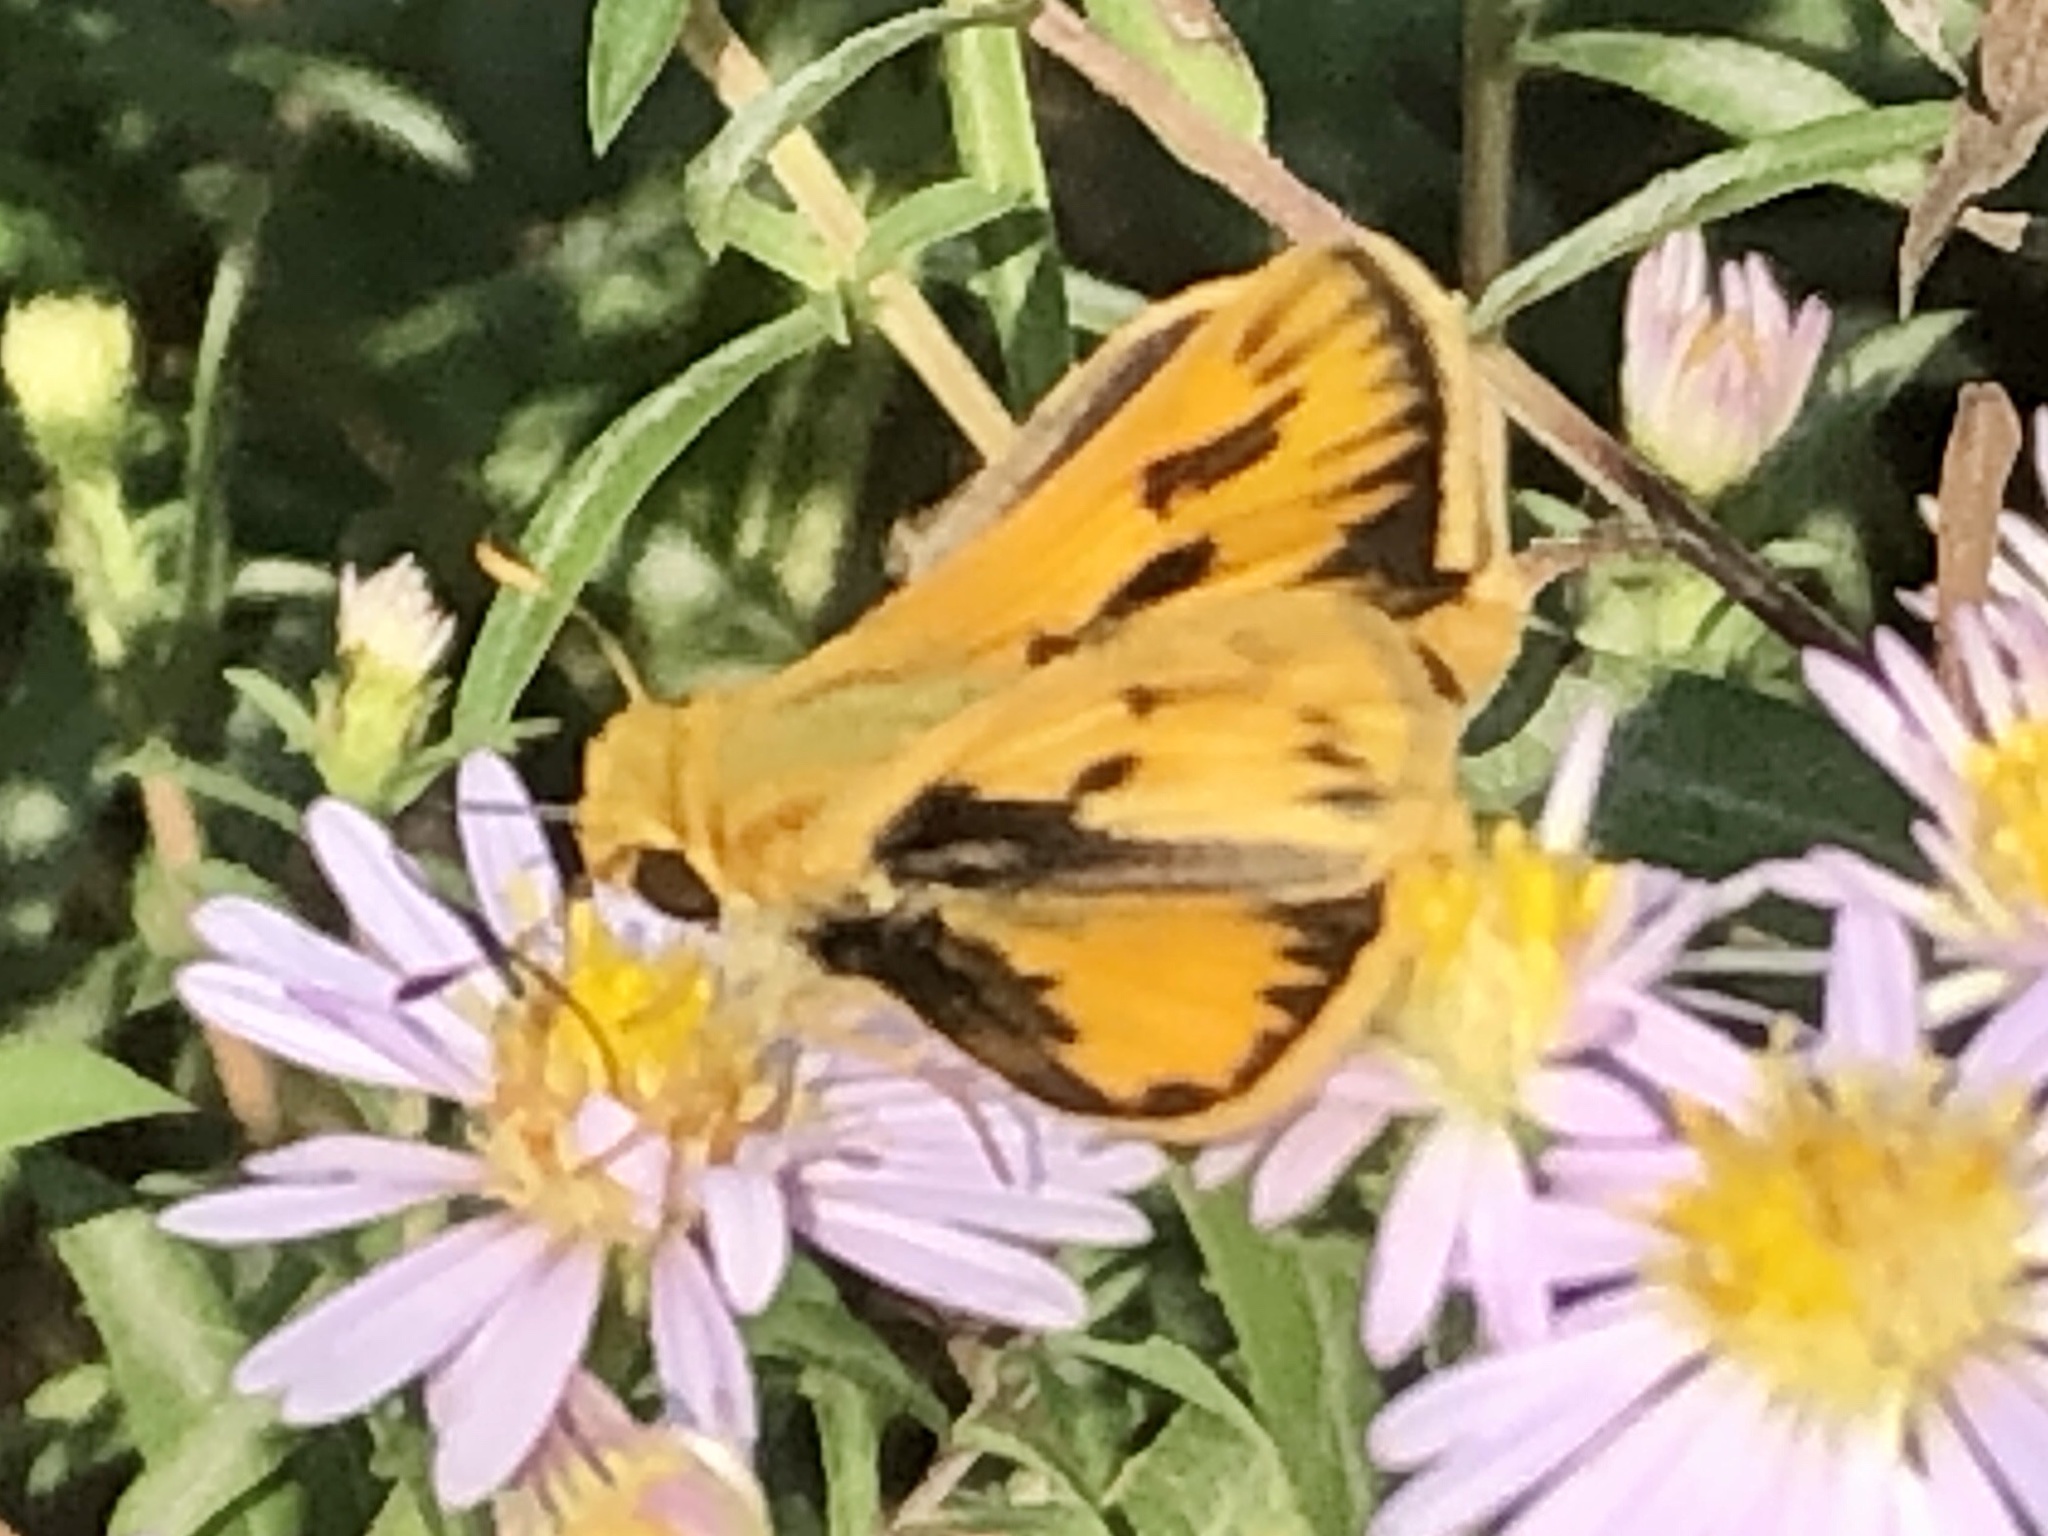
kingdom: Animalia
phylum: Arthropoda
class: Insecta
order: Lepidoptera
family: Hesperiidae
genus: Hylephila
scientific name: Hylephila phyleus
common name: Fiery skipper
